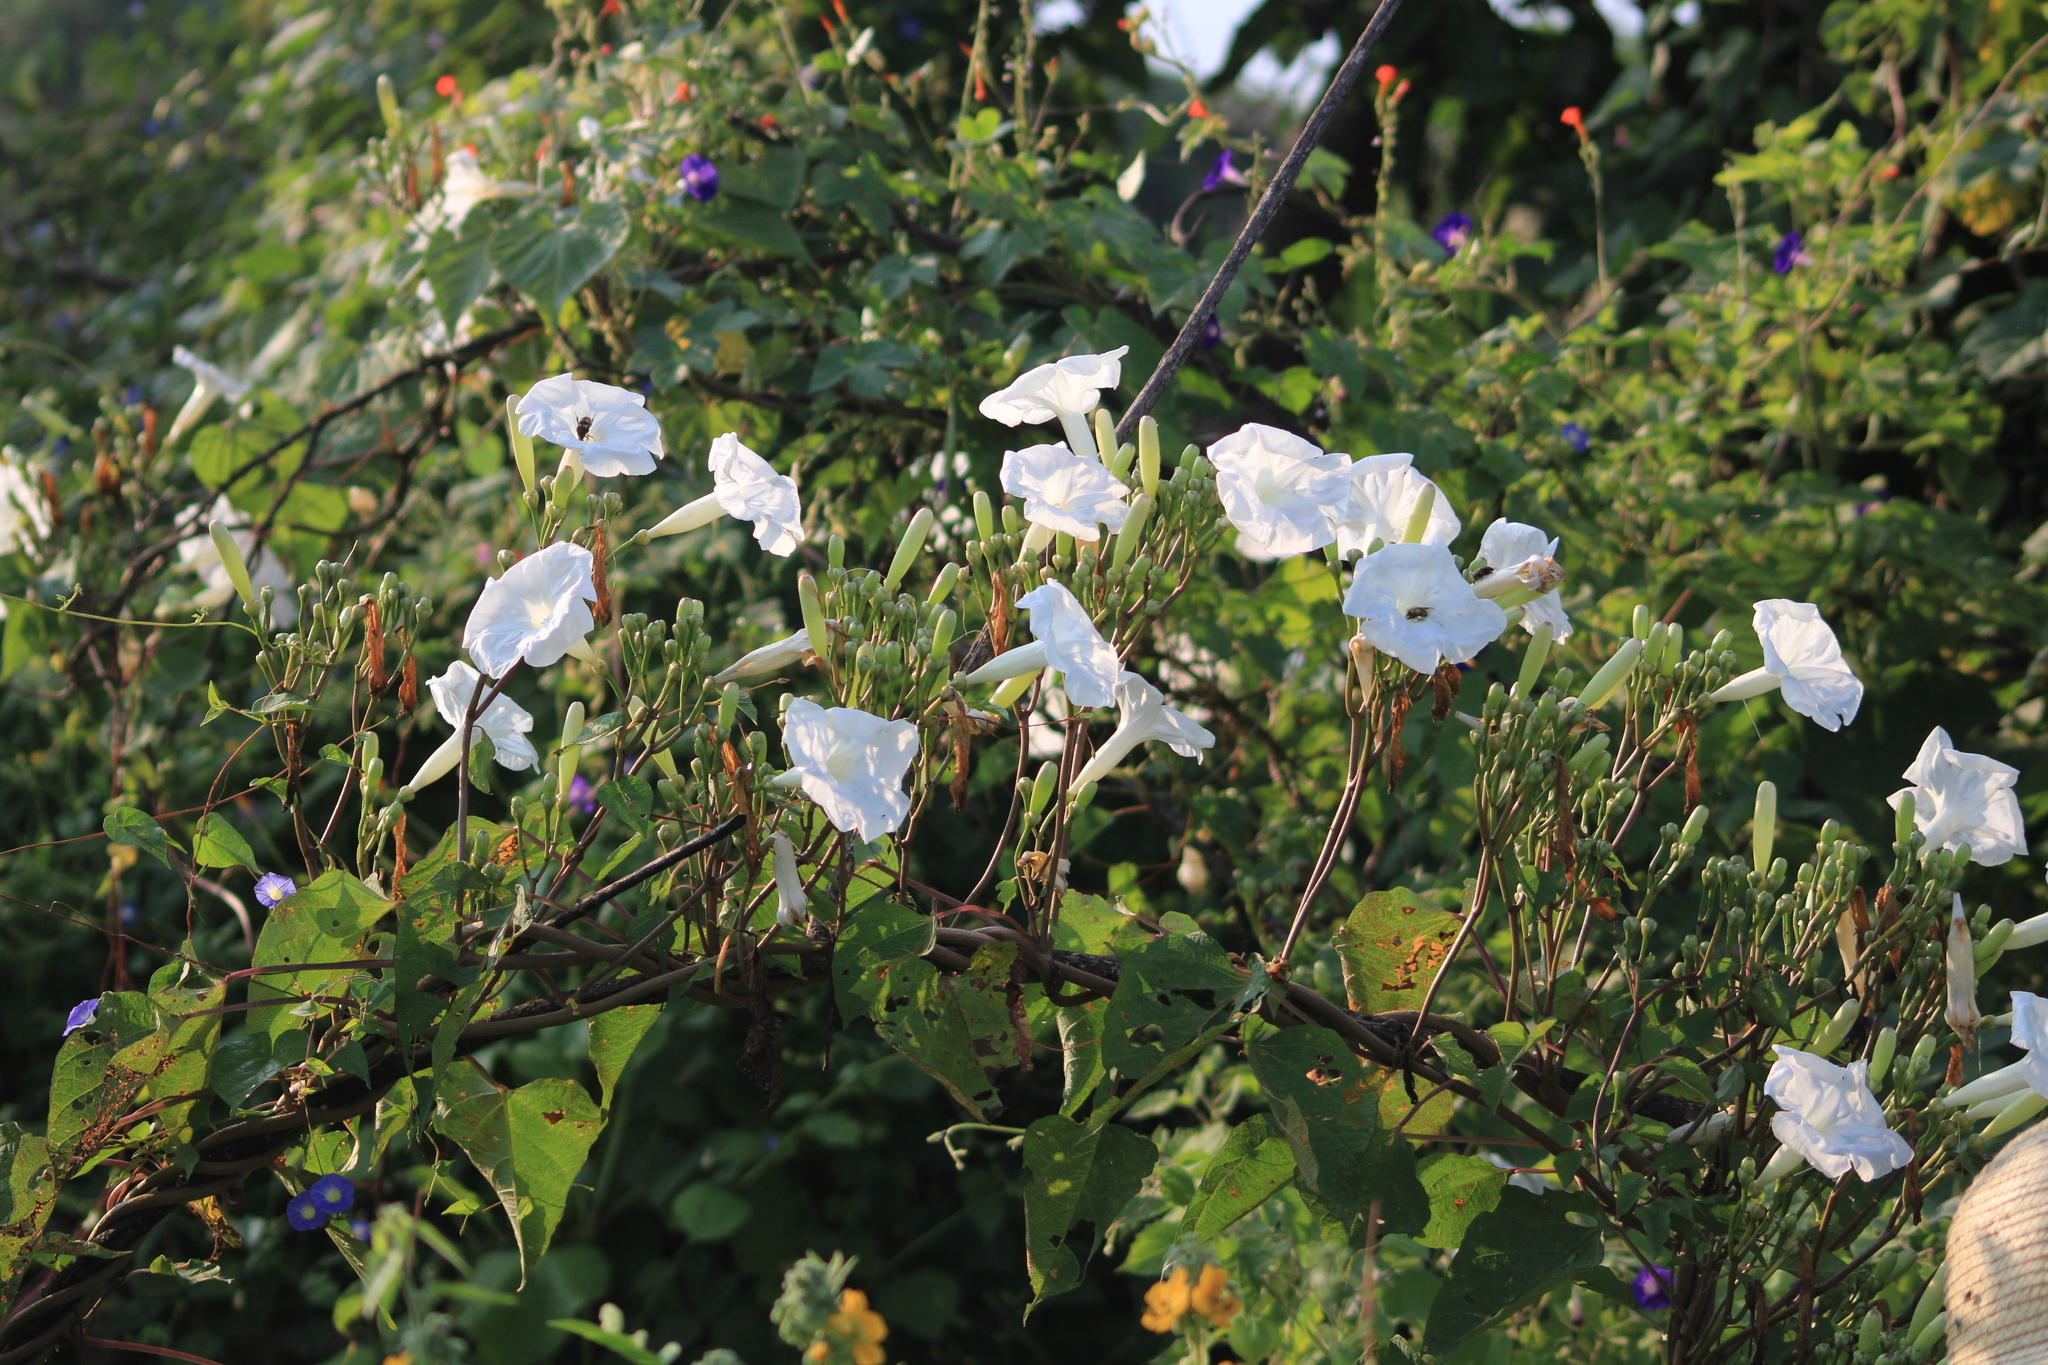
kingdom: Plantae
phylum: Tracheophyta
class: Magnoliopsida
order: Solanales
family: Convolvulaceae
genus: Ipomoea
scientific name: Ipomoea proxima
